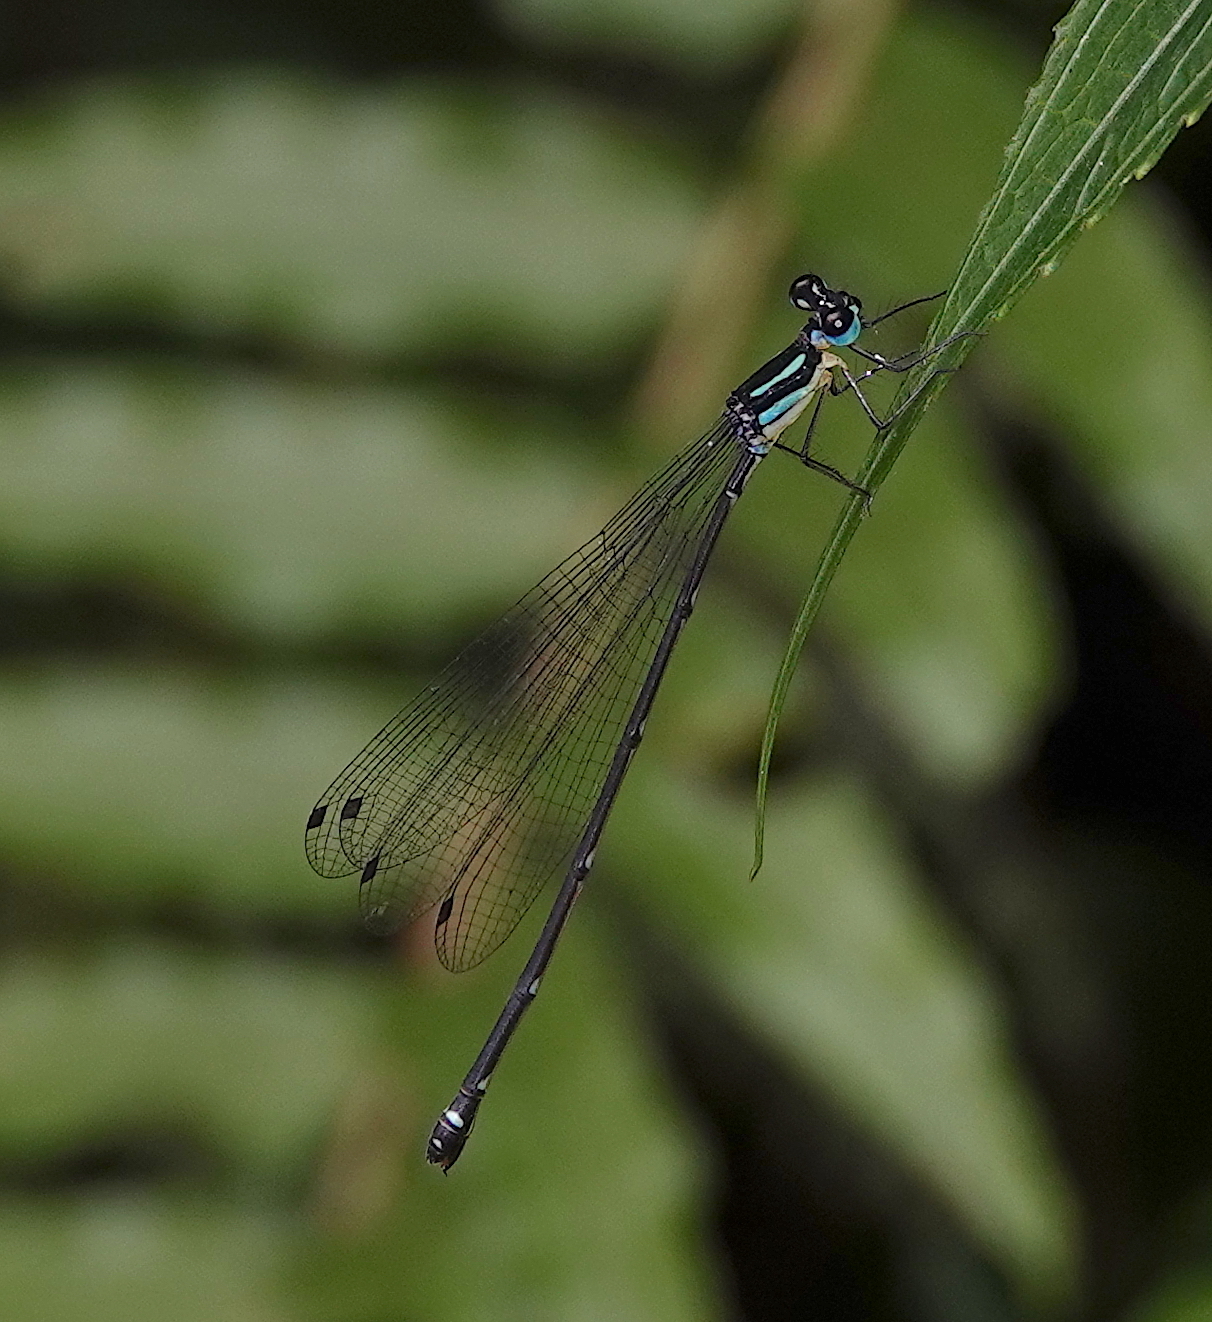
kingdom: Animalia
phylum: Arthropoda
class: Insecta
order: Odonata
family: Platycnemididae
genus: Coeliccia
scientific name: Coeliccia membranipes
